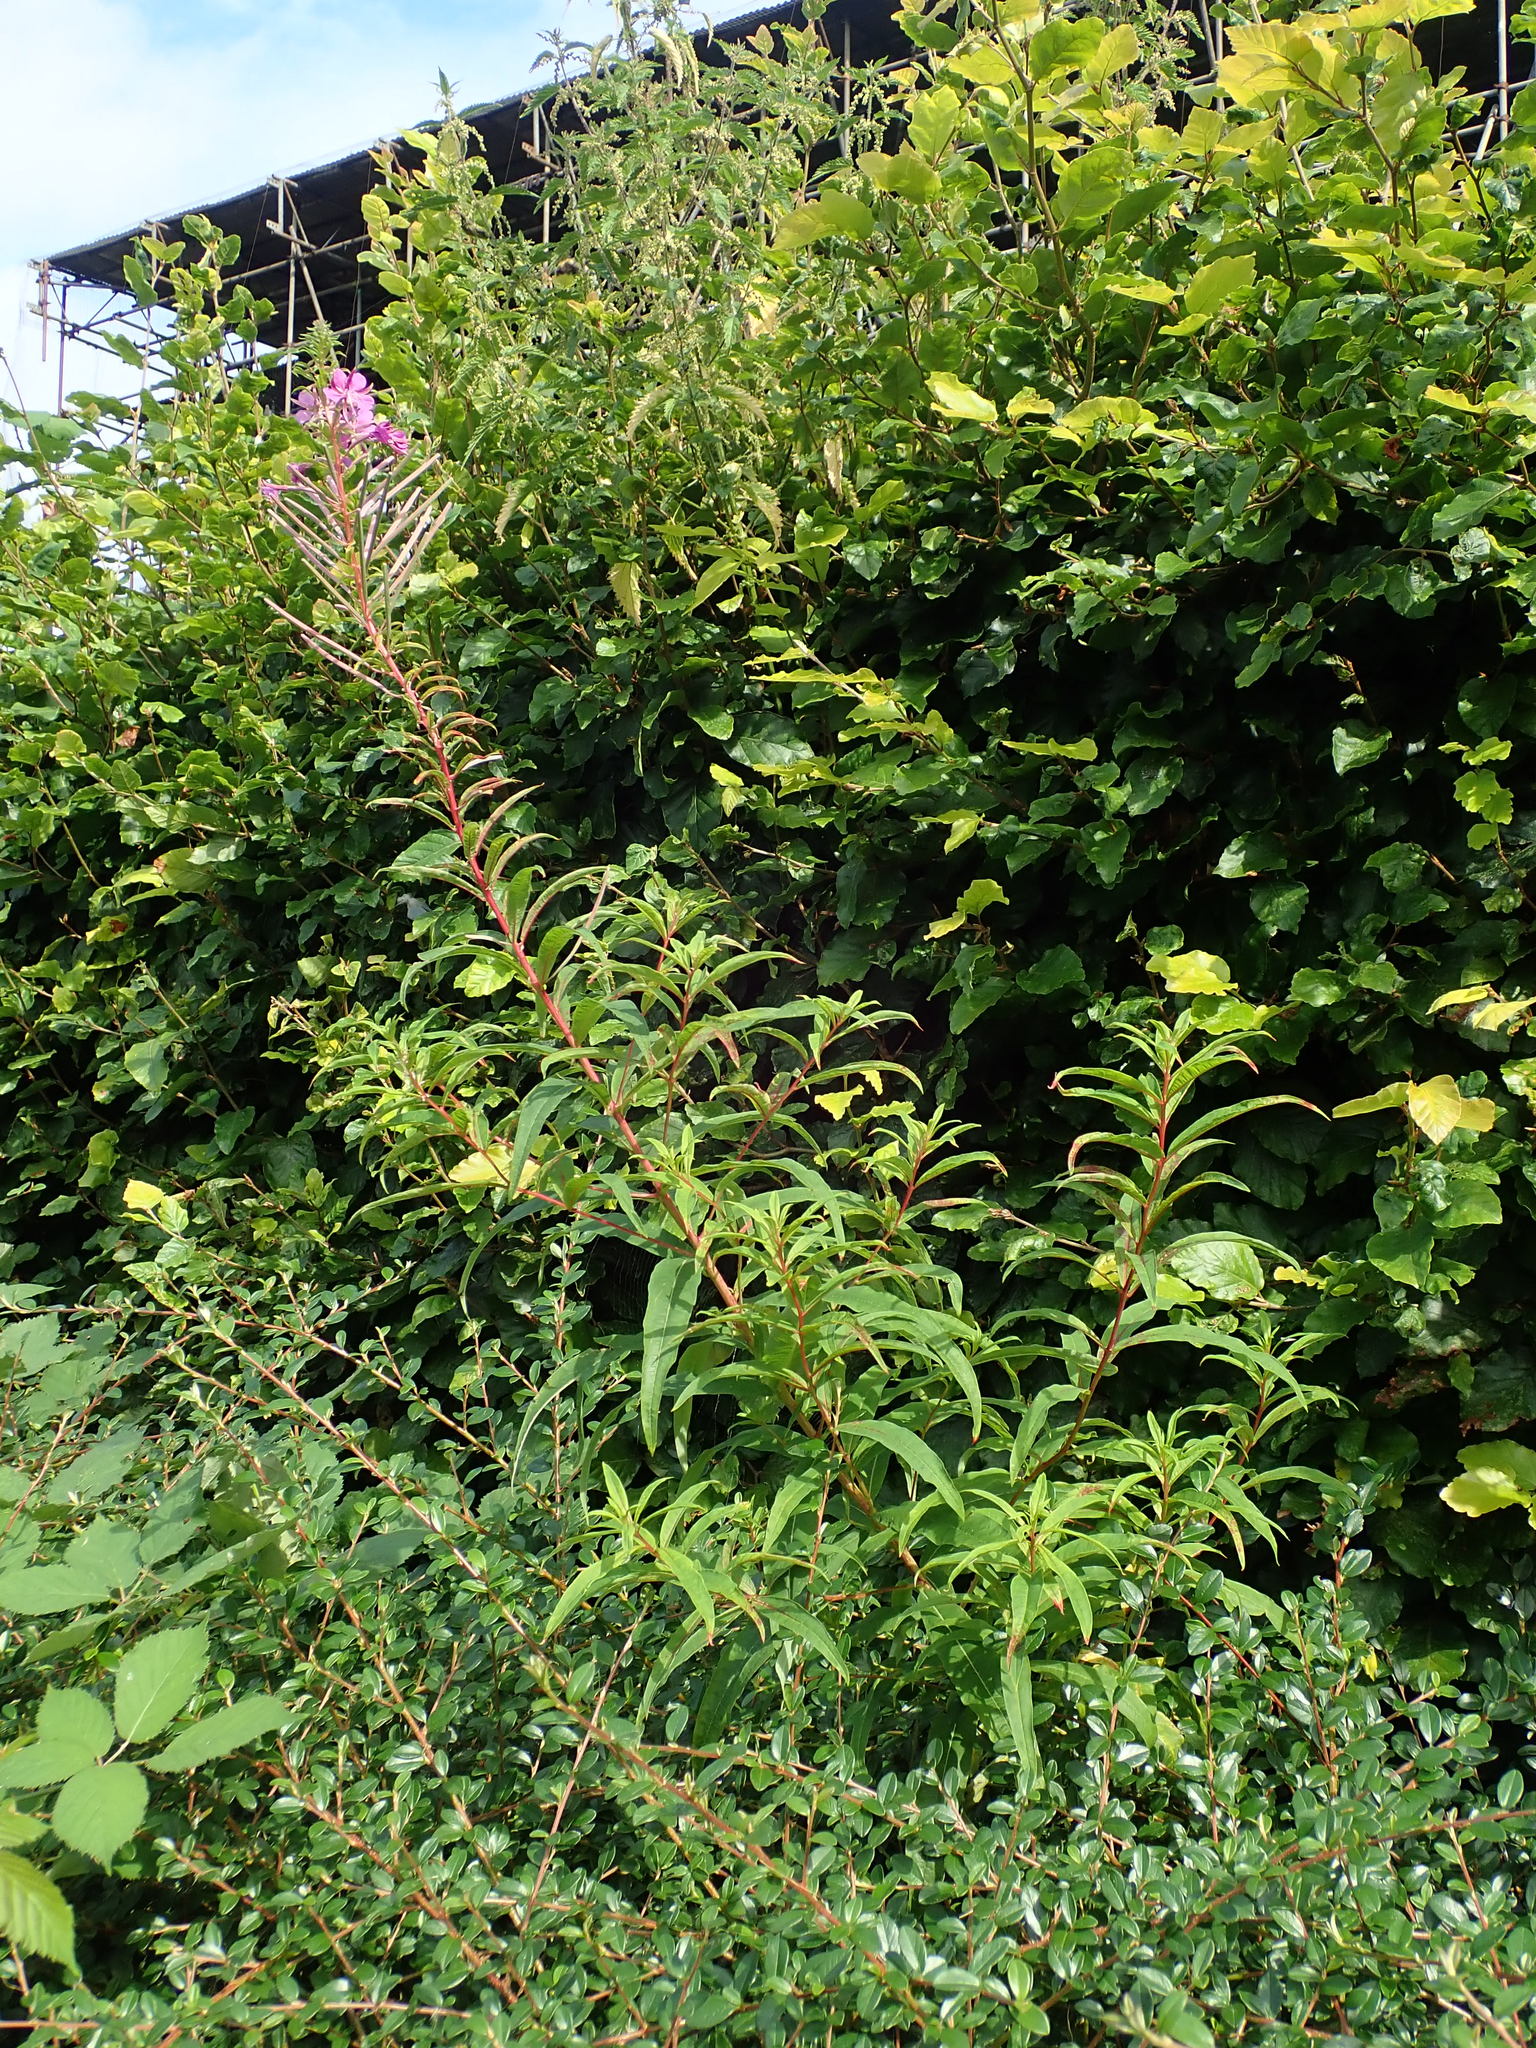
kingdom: Plantae
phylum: Tracheophyta
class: Magnoliopsida
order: Myrtales
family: Onagraceae
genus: Chamaenerion
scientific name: Chamaenerion angustifolium
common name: Fireweed
